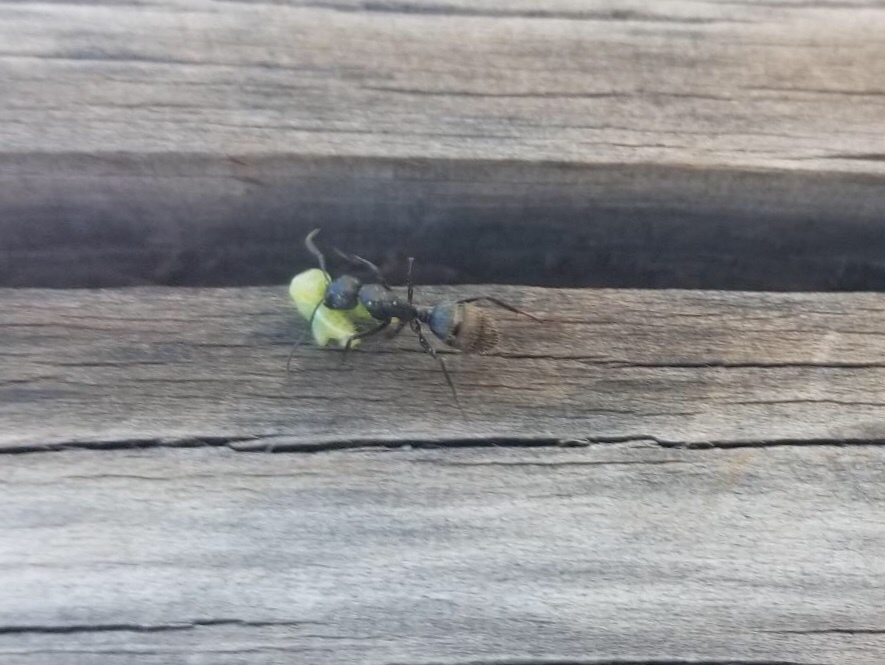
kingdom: Animalia
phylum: Arthropoda
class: Insecta
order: Hymenoptera
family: Formicidae
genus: Camponotus
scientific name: Camponotus pennsylvanicus
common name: Black carpenter ant
